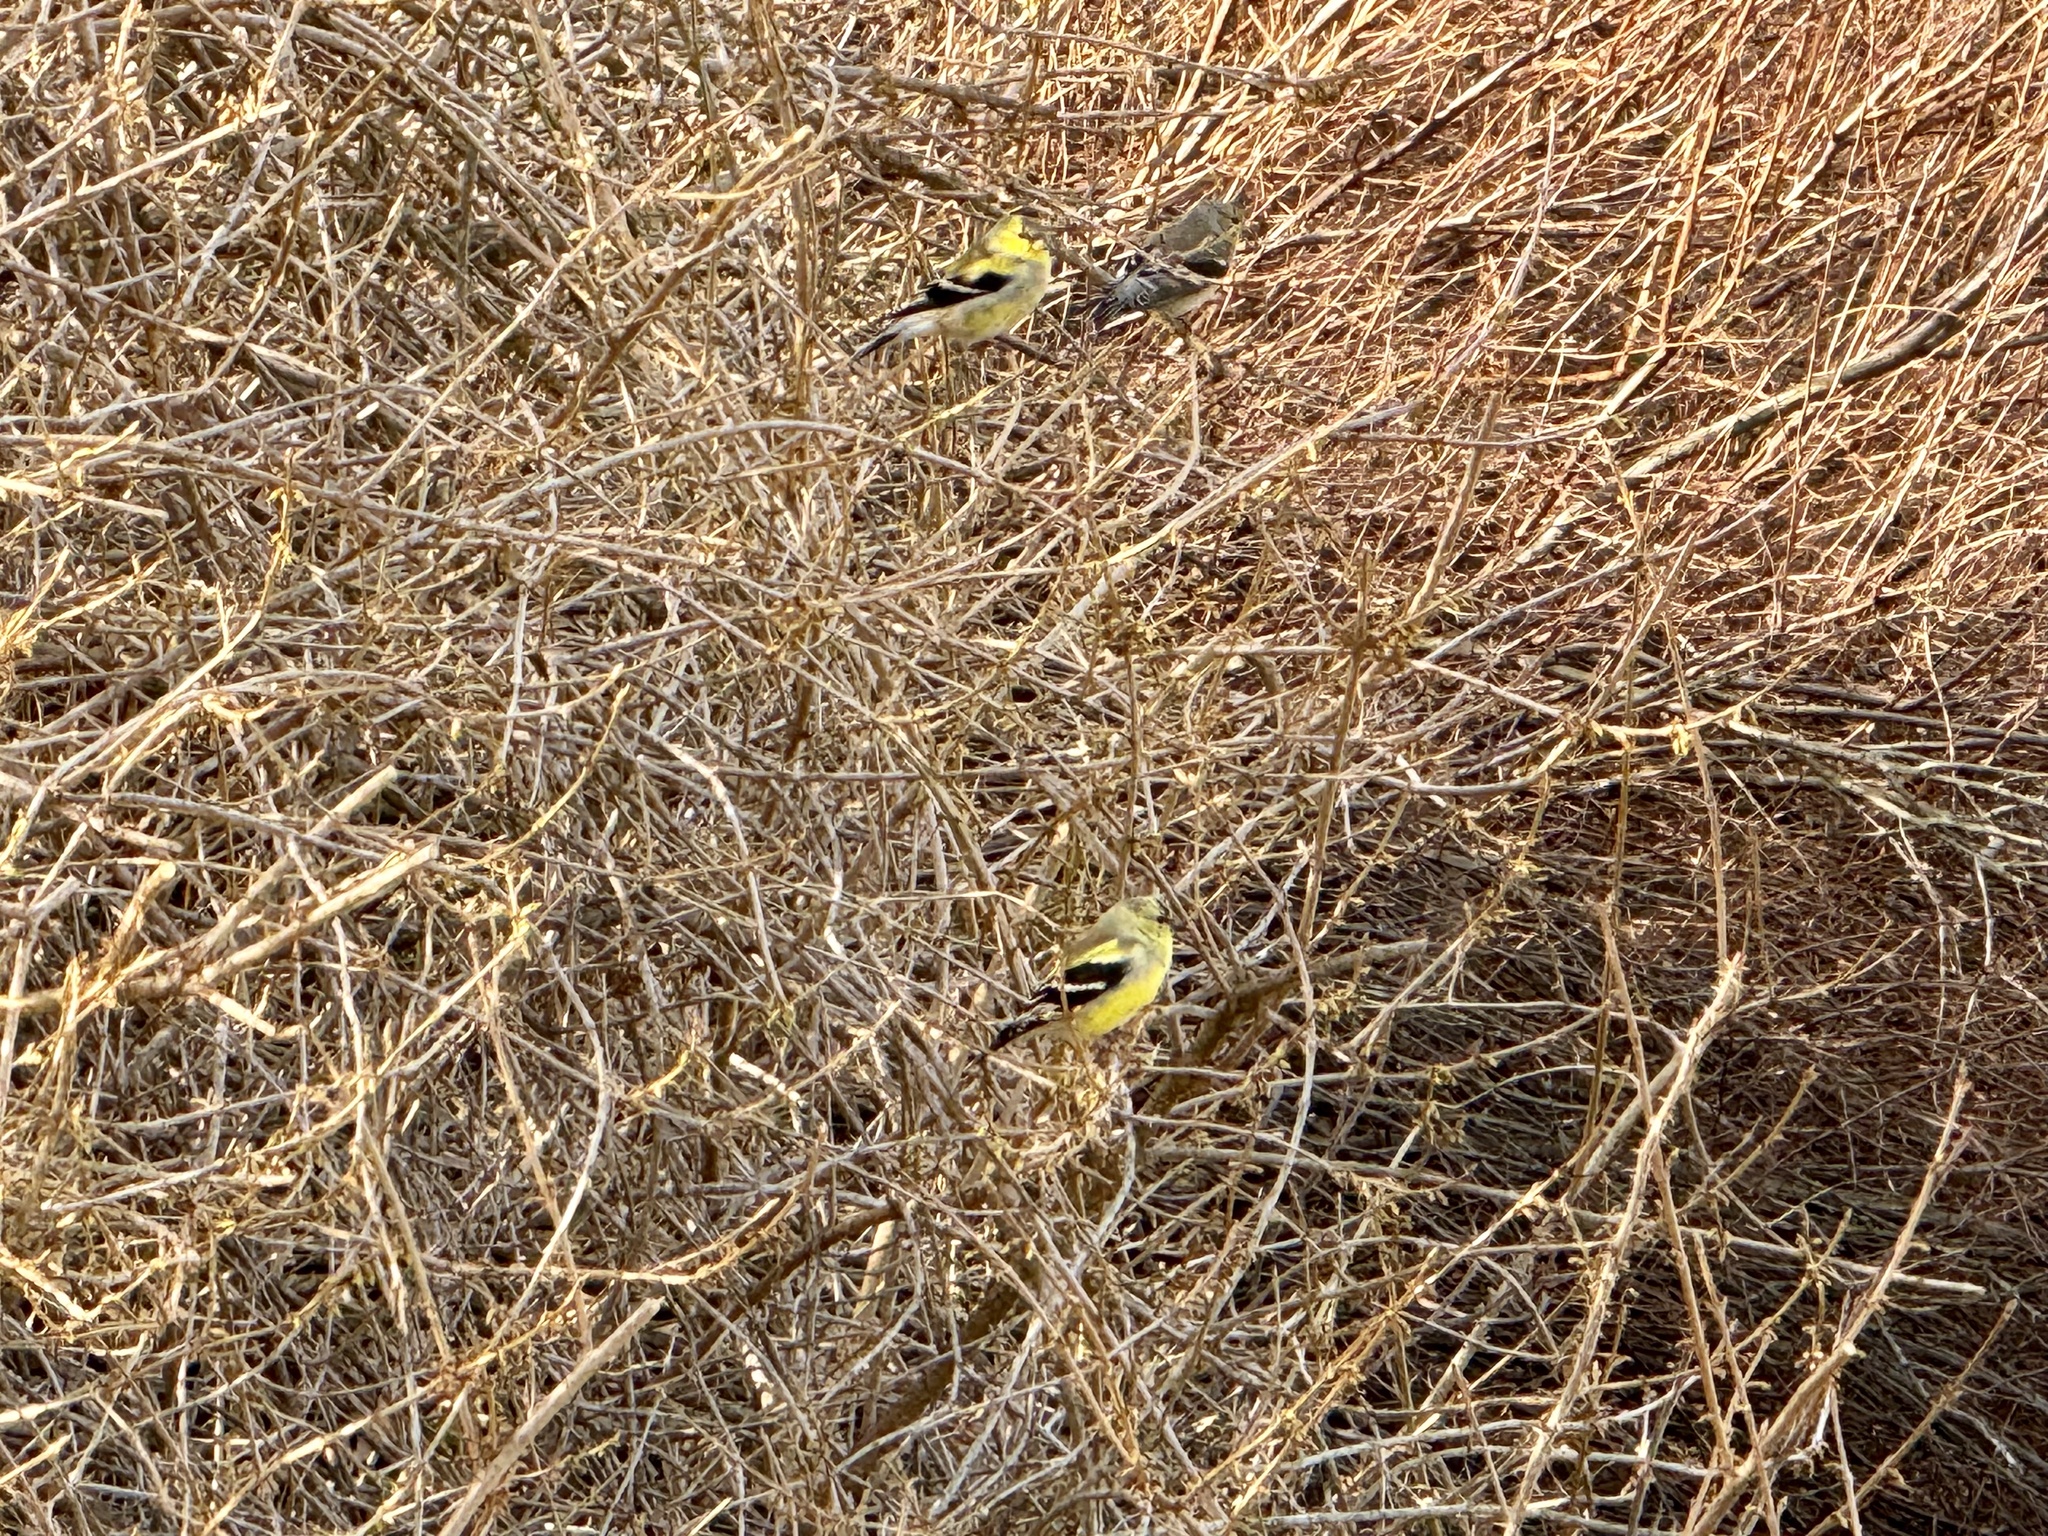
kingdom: Animalia
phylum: Chordata
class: Aves
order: Passeriformes
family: Fringillidae
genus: Spinus
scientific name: Spinus tristis
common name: American goldfinch
